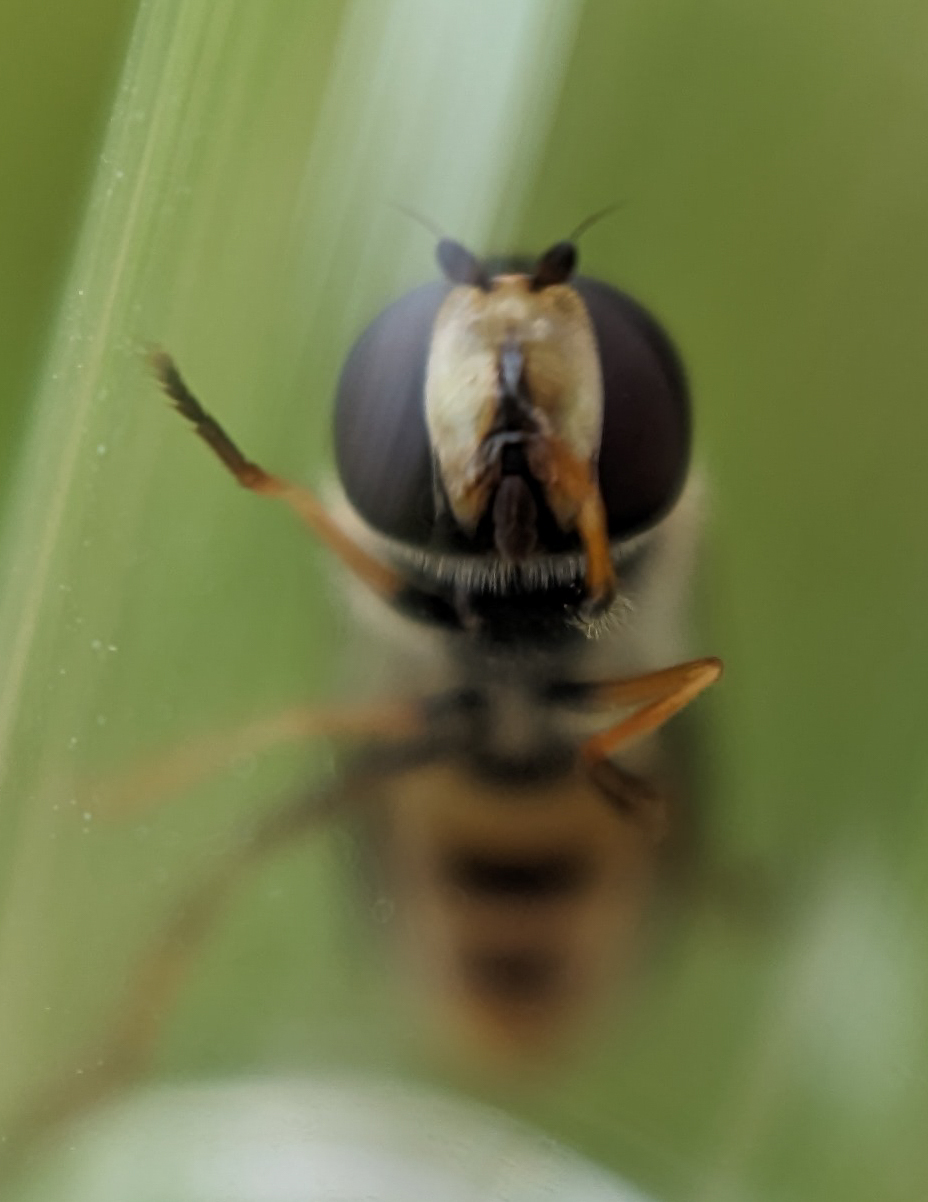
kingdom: Animalia
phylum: Arthropoda
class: Insecta
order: Diptera
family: Syrphidae
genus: Eupeodes
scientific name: Eupeodes
